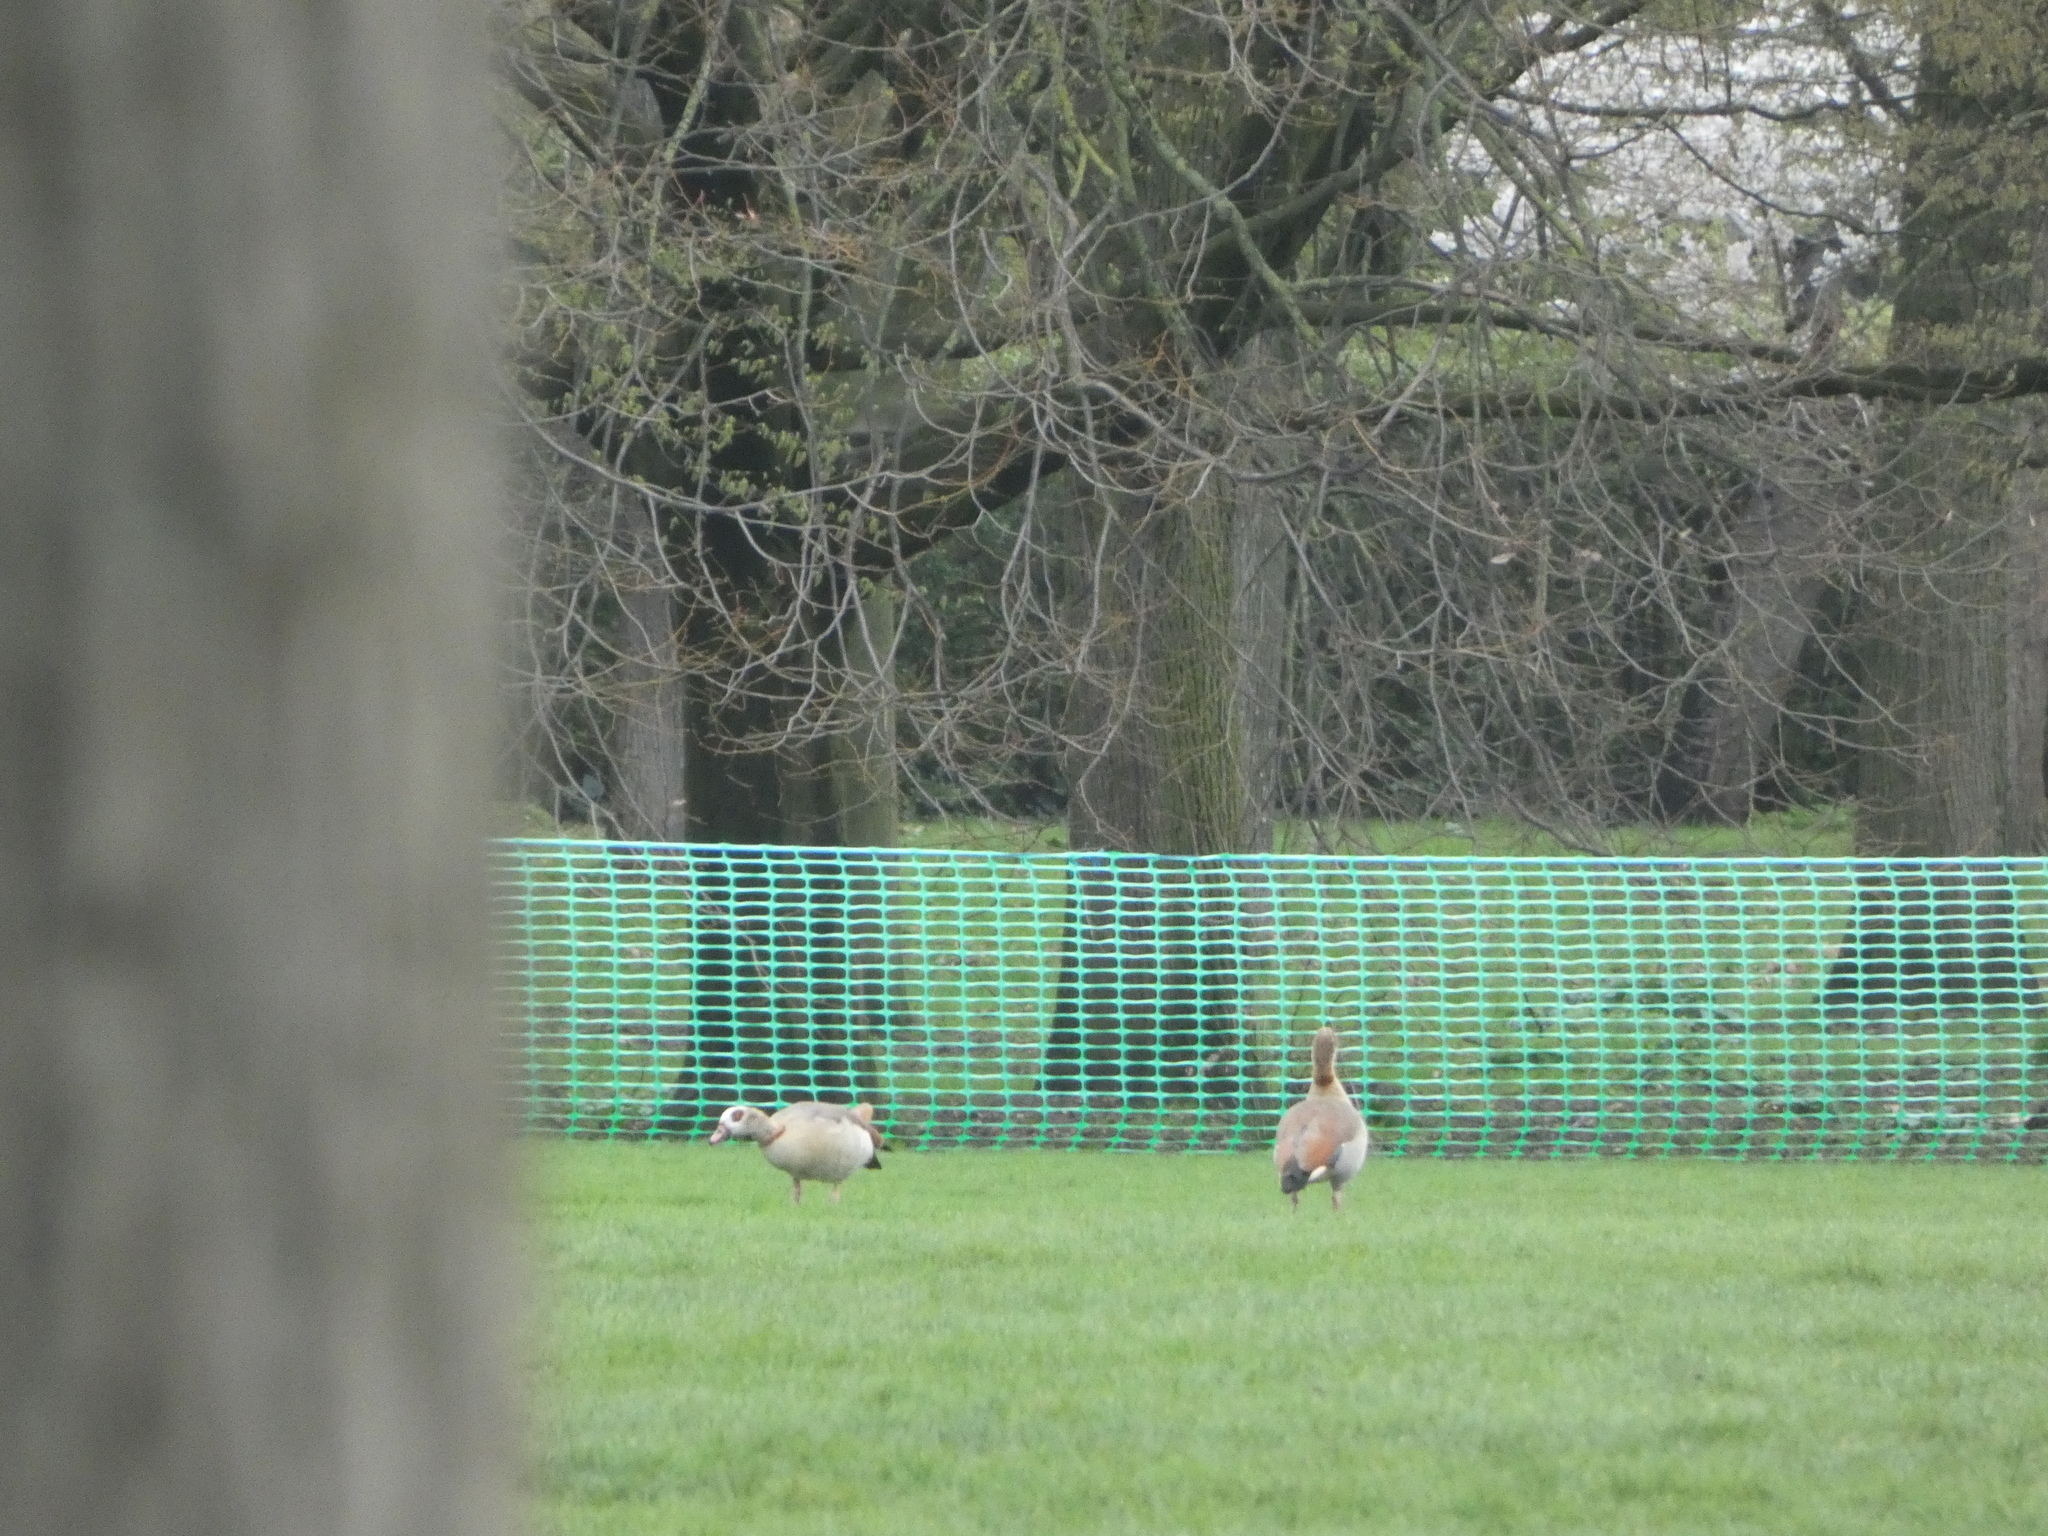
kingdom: Animalia
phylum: Chordata
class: Aves
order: Anseriformes
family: Anatidae
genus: Alopochen
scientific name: Alopochen aegyptiaca
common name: Egyptian goose
